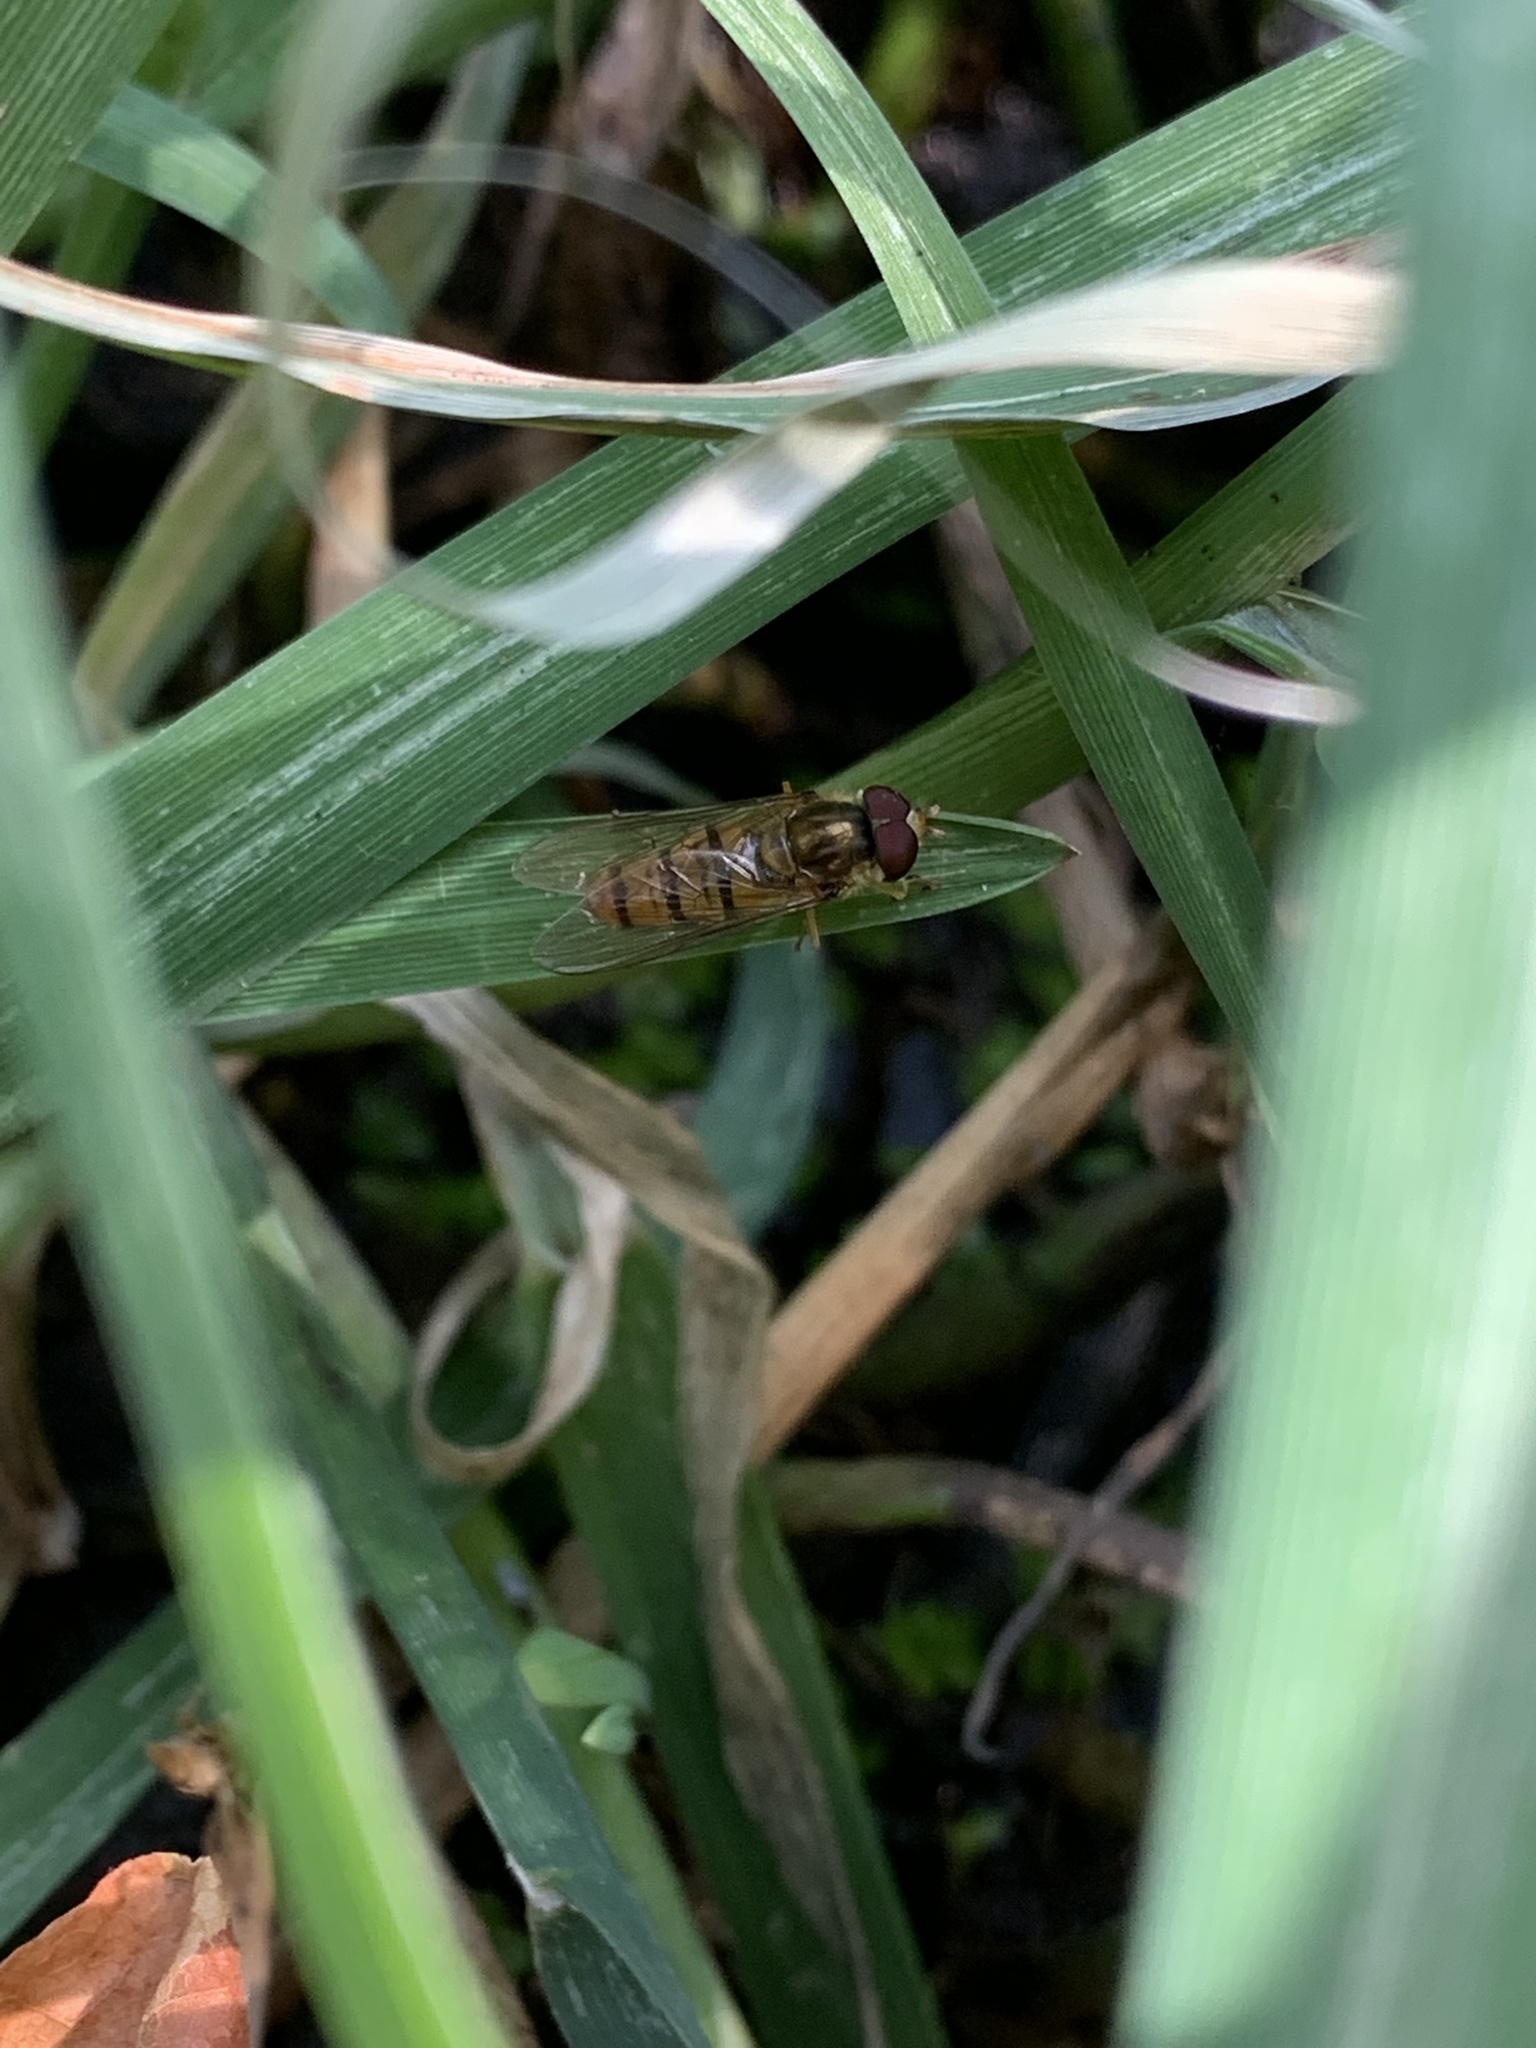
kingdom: Animalia
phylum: Arthropoda
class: Insecta
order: Diptera
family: Syrphidae
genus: Episyrphus
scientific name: Episyrphus balteatus
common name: Marmalade hoverfly
